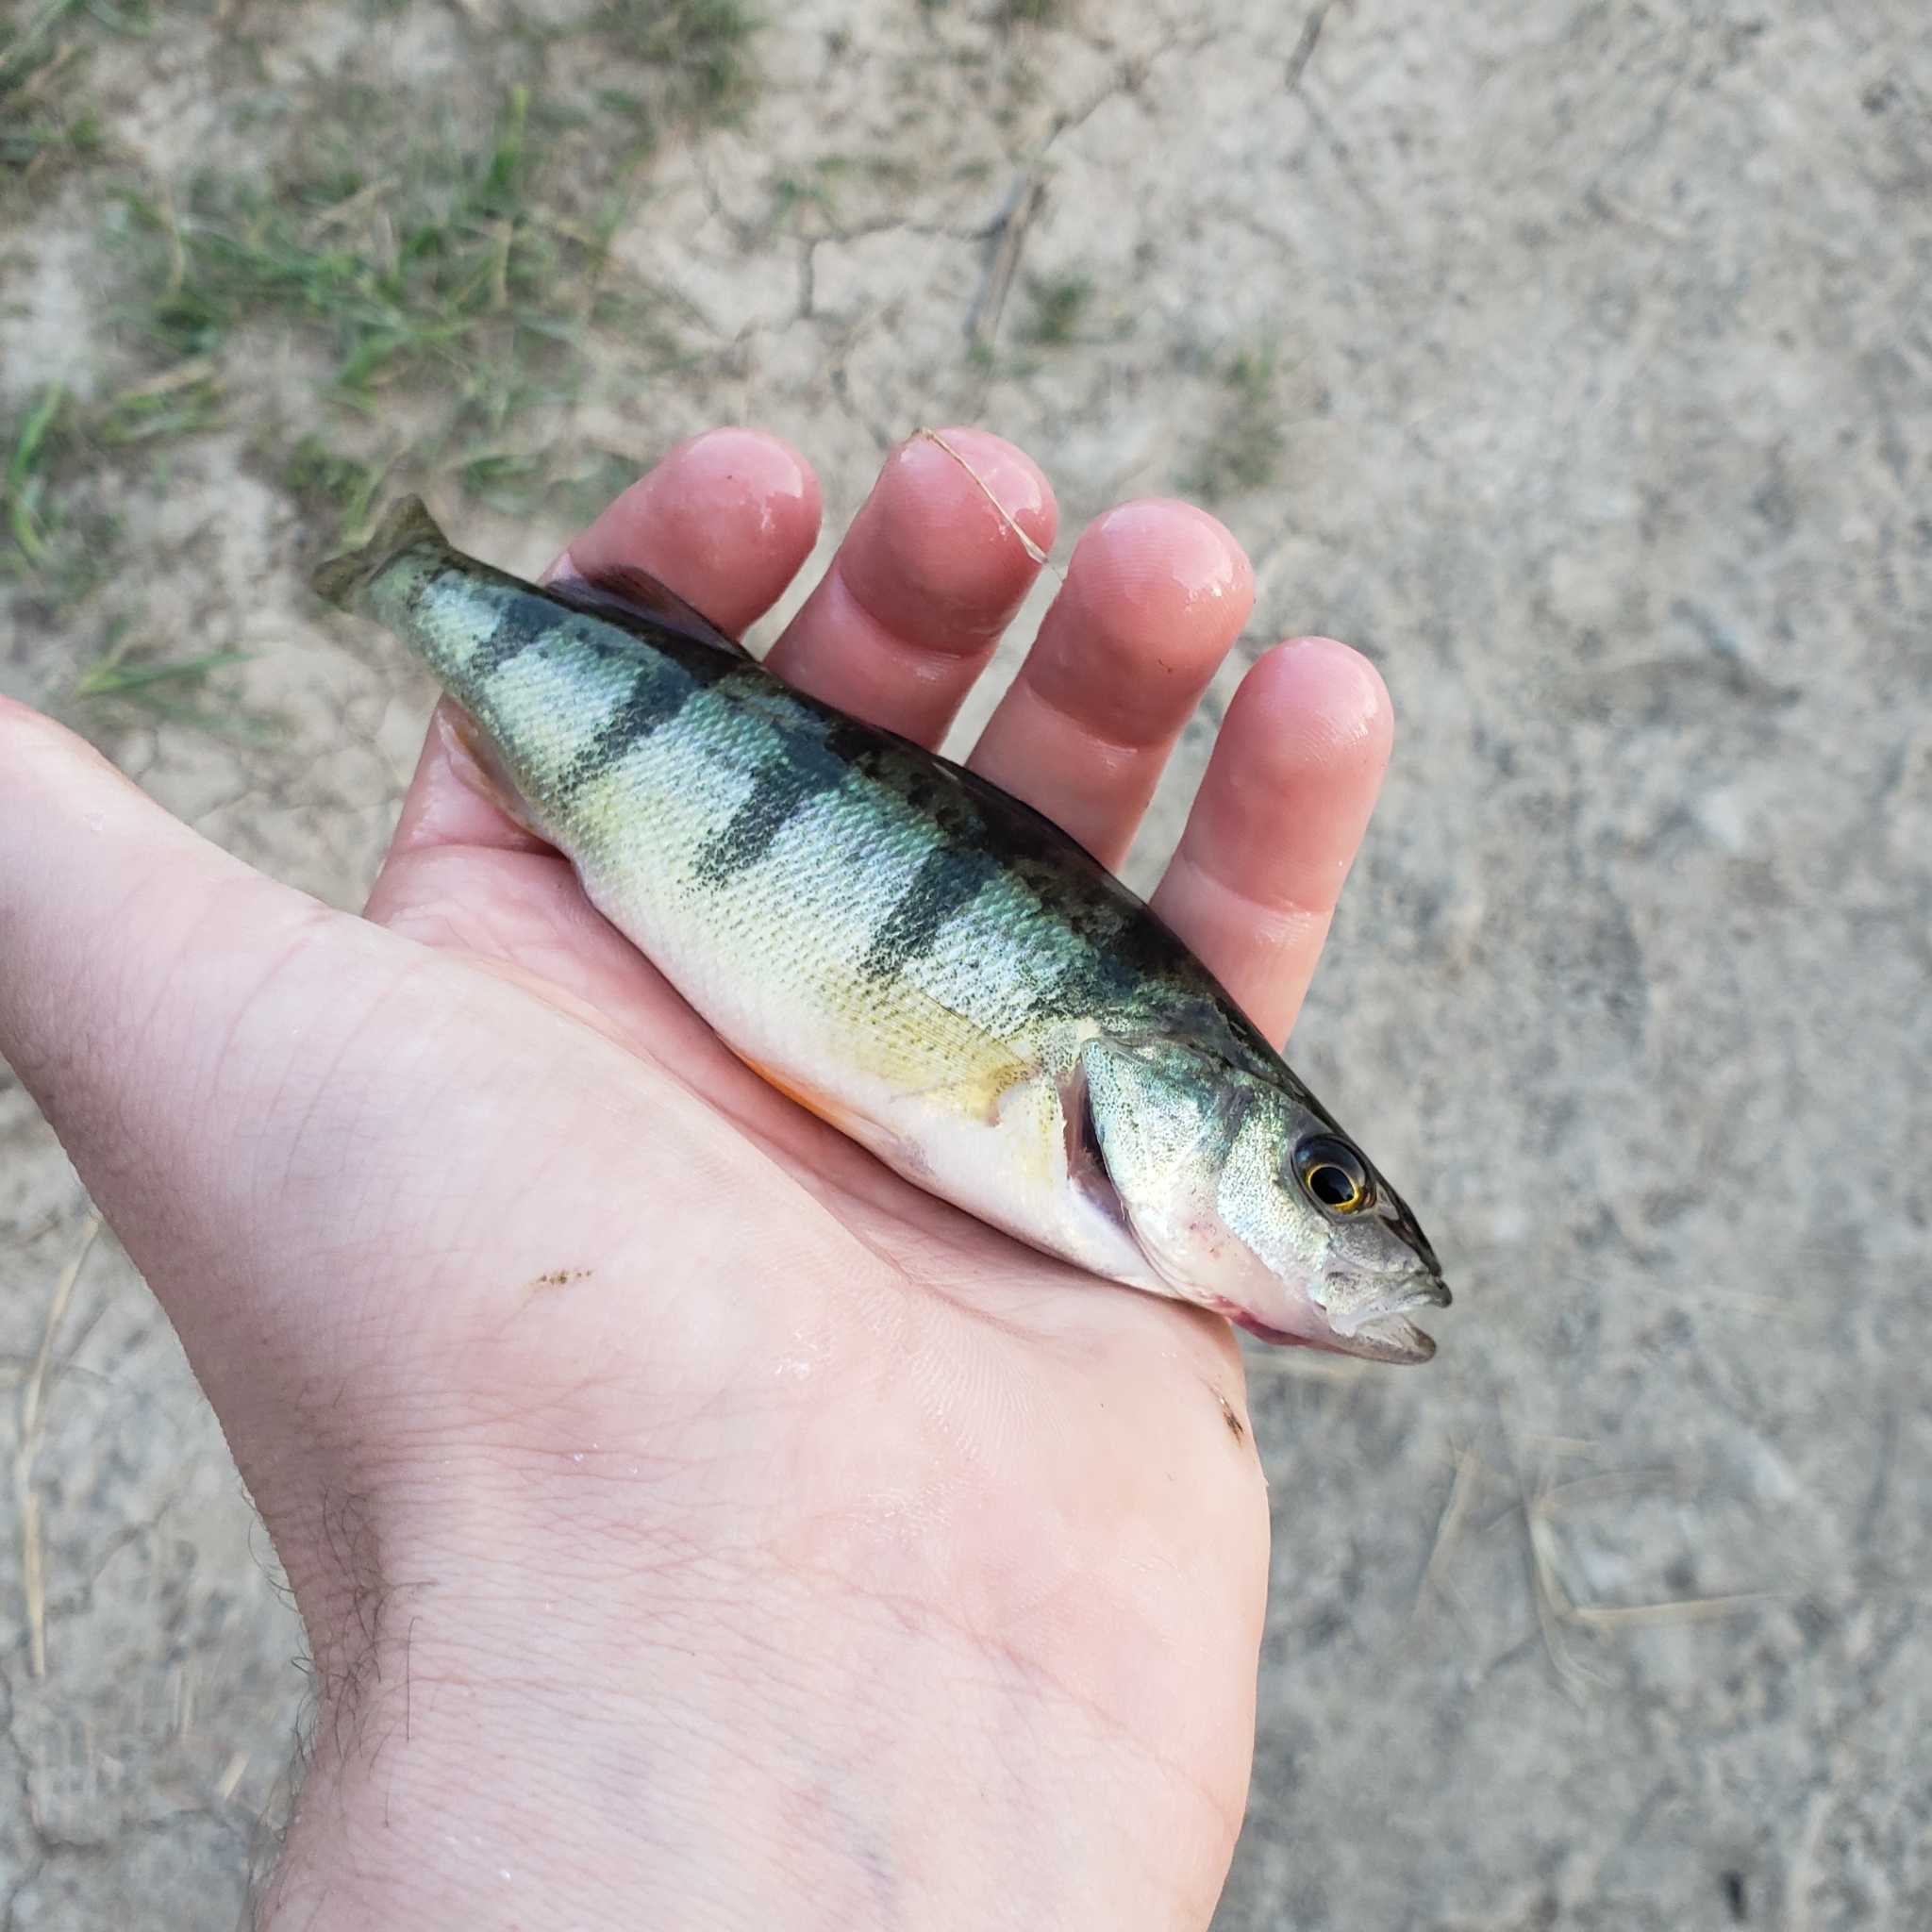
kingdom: Animalia
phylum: Chordata
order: Perciformes
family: Percidae
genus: Perca
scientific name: Perca flavescens
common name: Yellow perch
